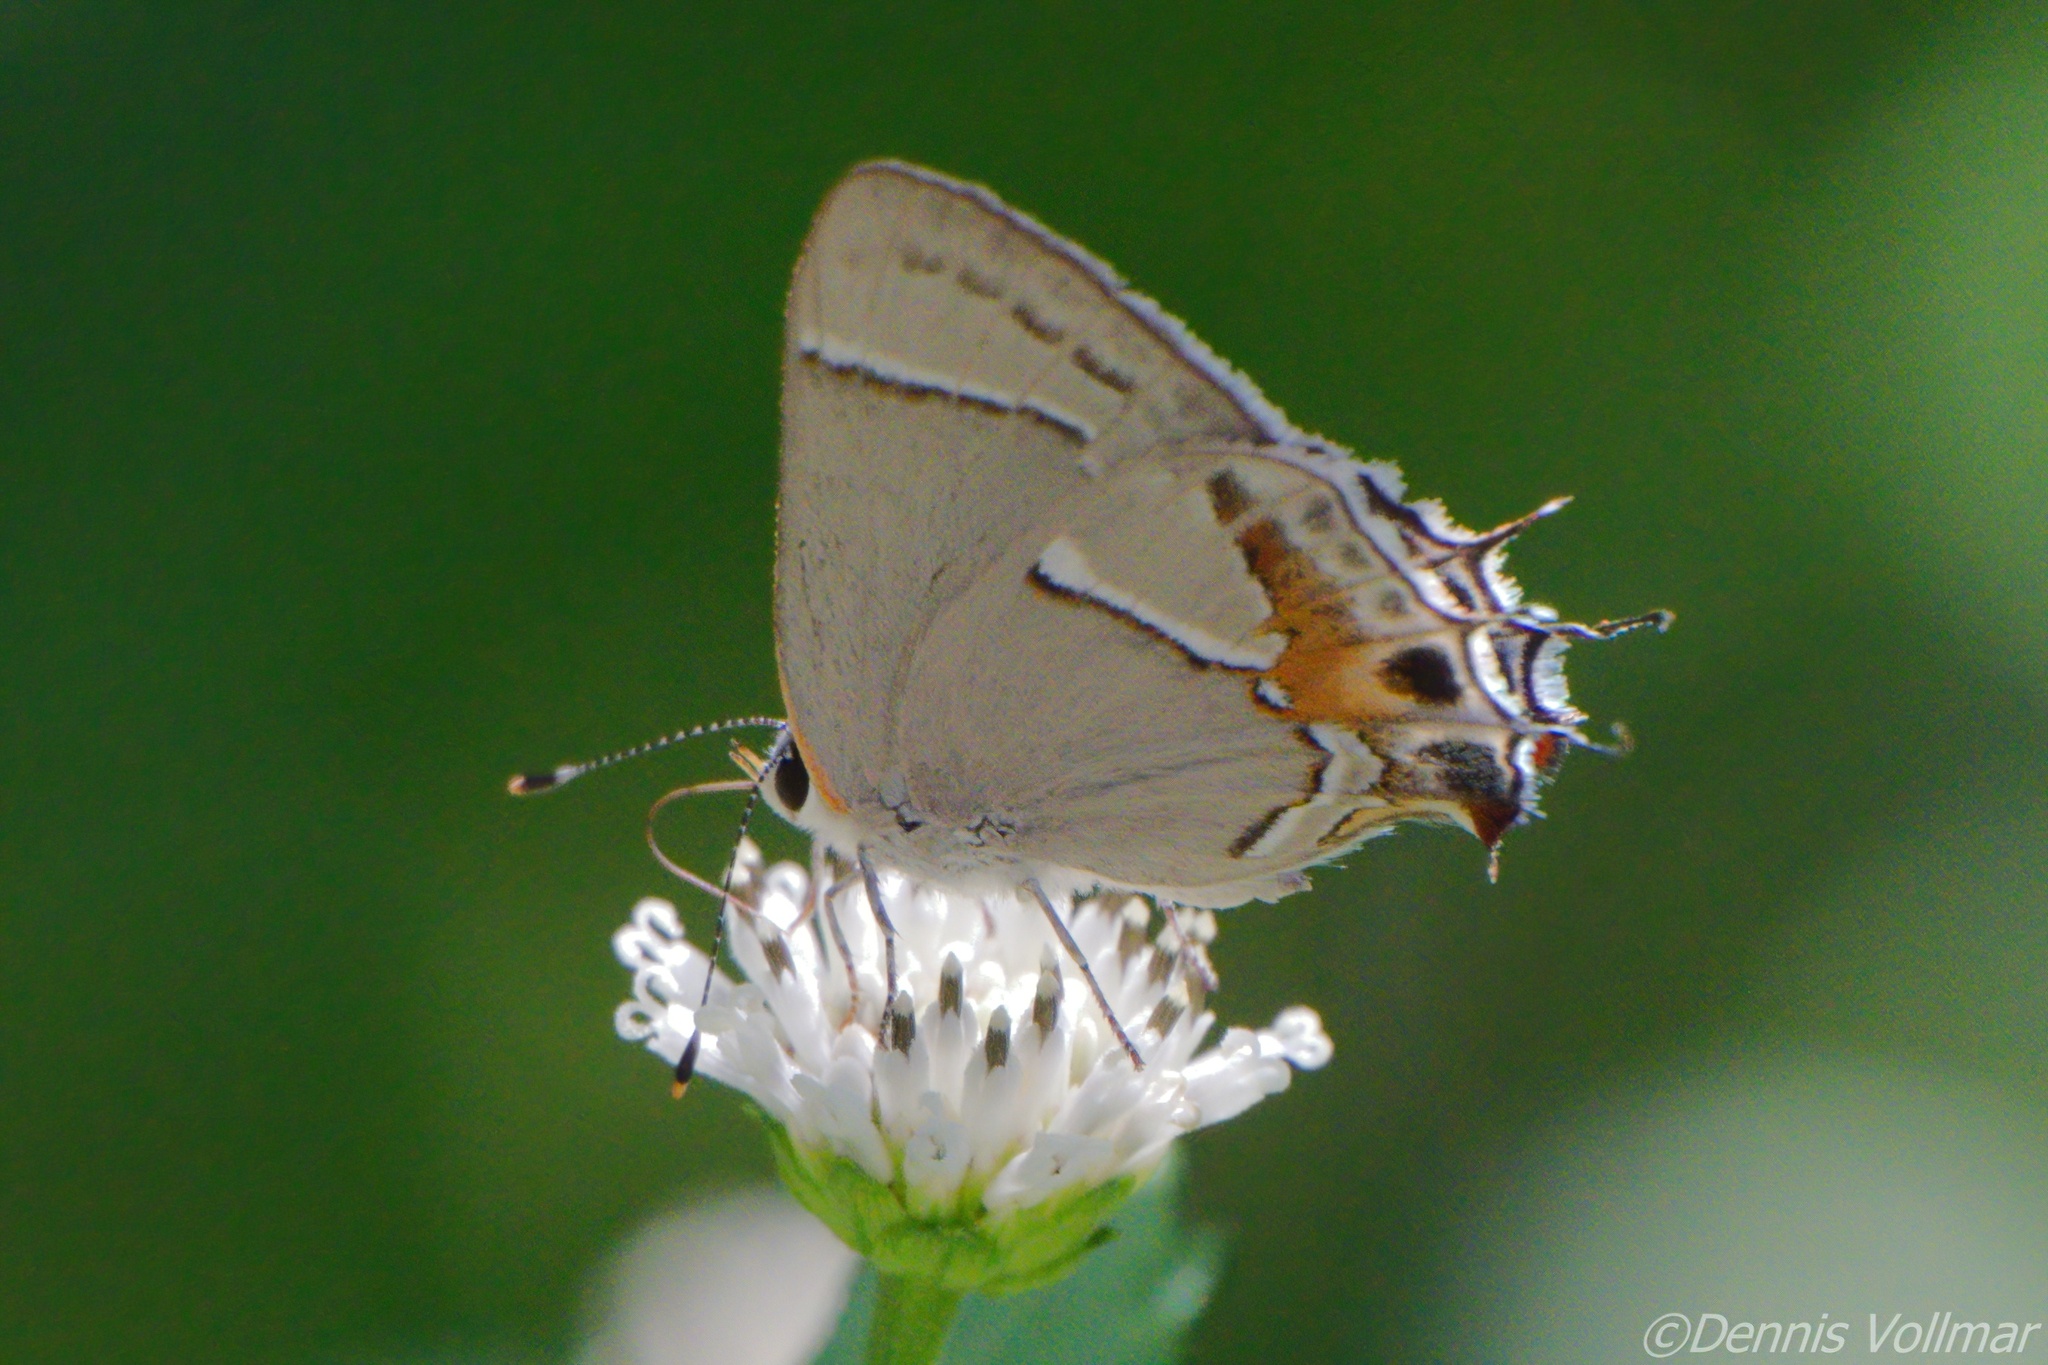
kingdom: Animalia
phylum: Arthropoda
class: Insecta
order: Lepidoptera
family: Lycaenidae
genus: Thecla
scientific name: Thecla martialis
